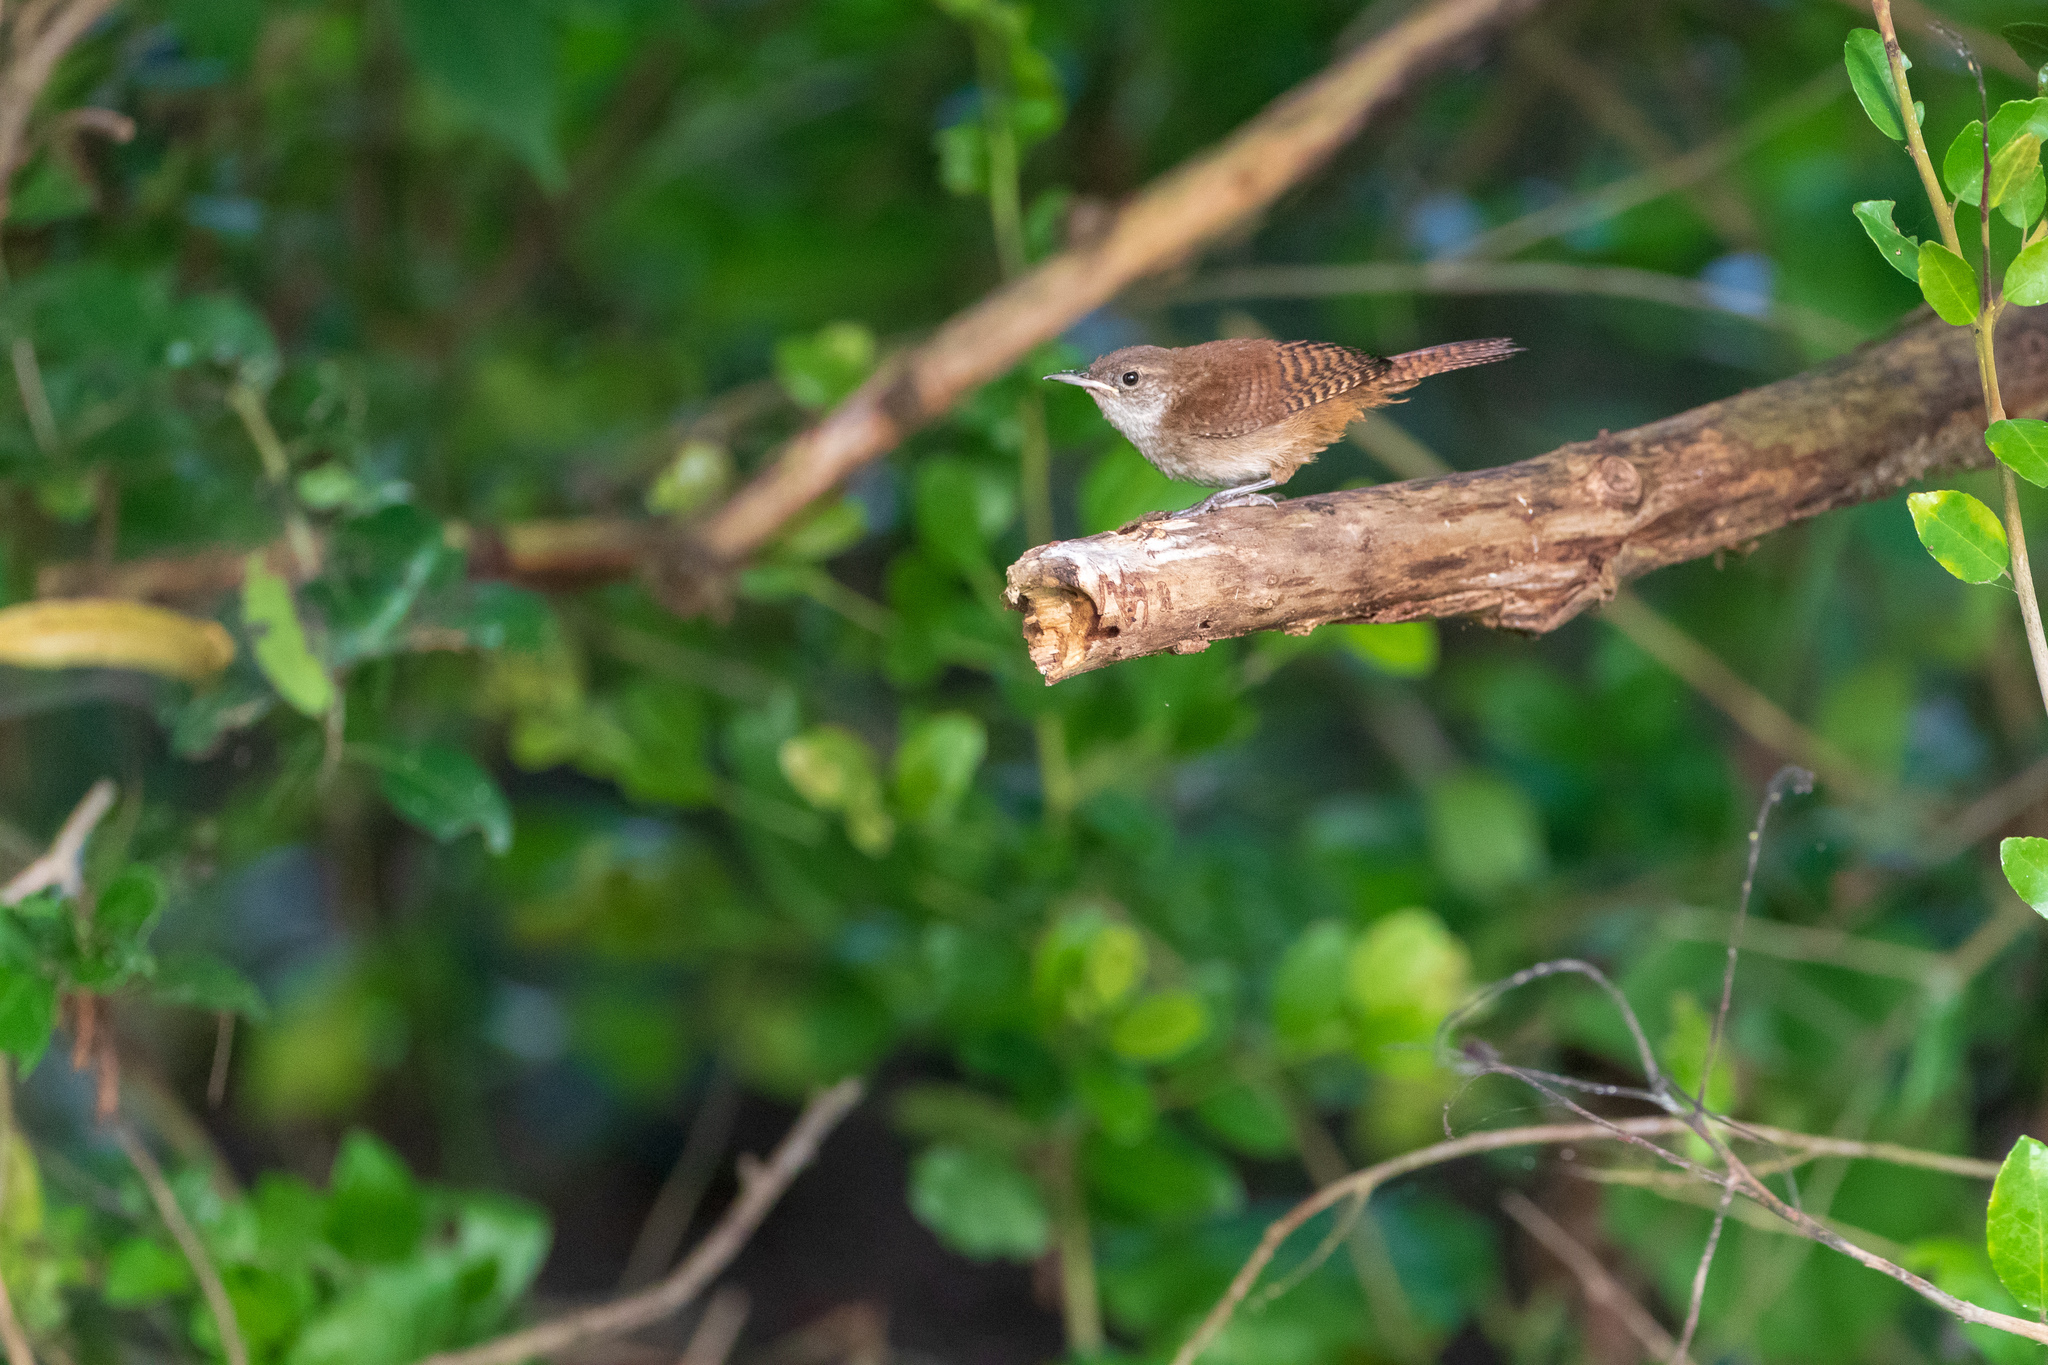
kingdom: Animalia
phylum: Chordata
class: Aves
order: Passeriformes
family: Troglodytidae
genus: Troglodytes
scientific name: Troglodytes aedon
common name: House wren
